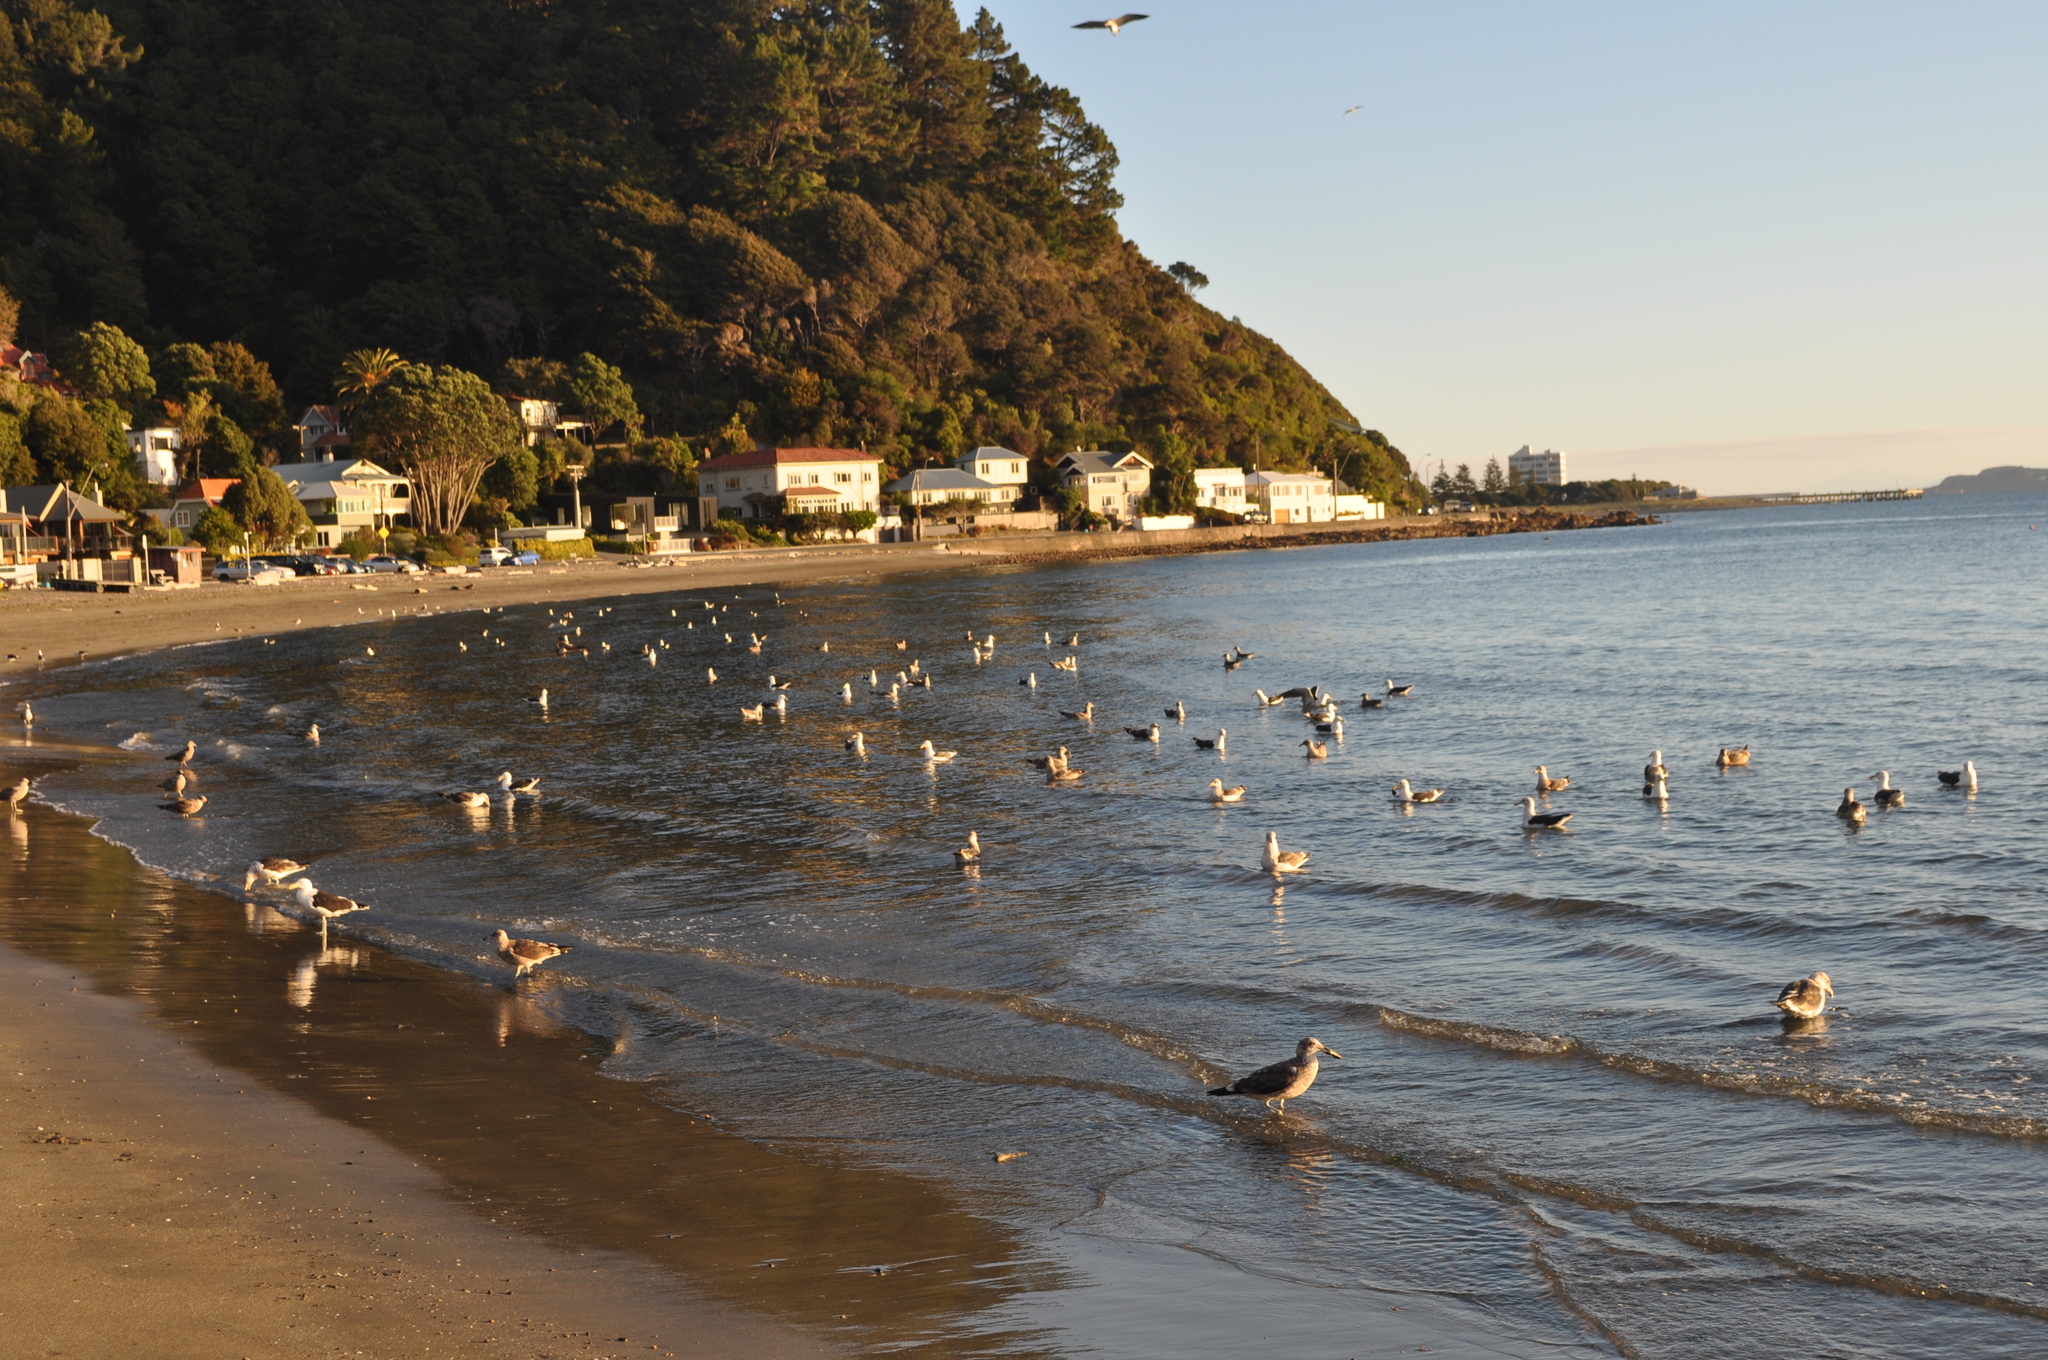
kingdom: Animalia
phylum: Chordata
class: Aves
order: Charadriiformes
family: Laridae
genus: Larus
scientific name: Larus dominicanus
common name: Kelp gull
